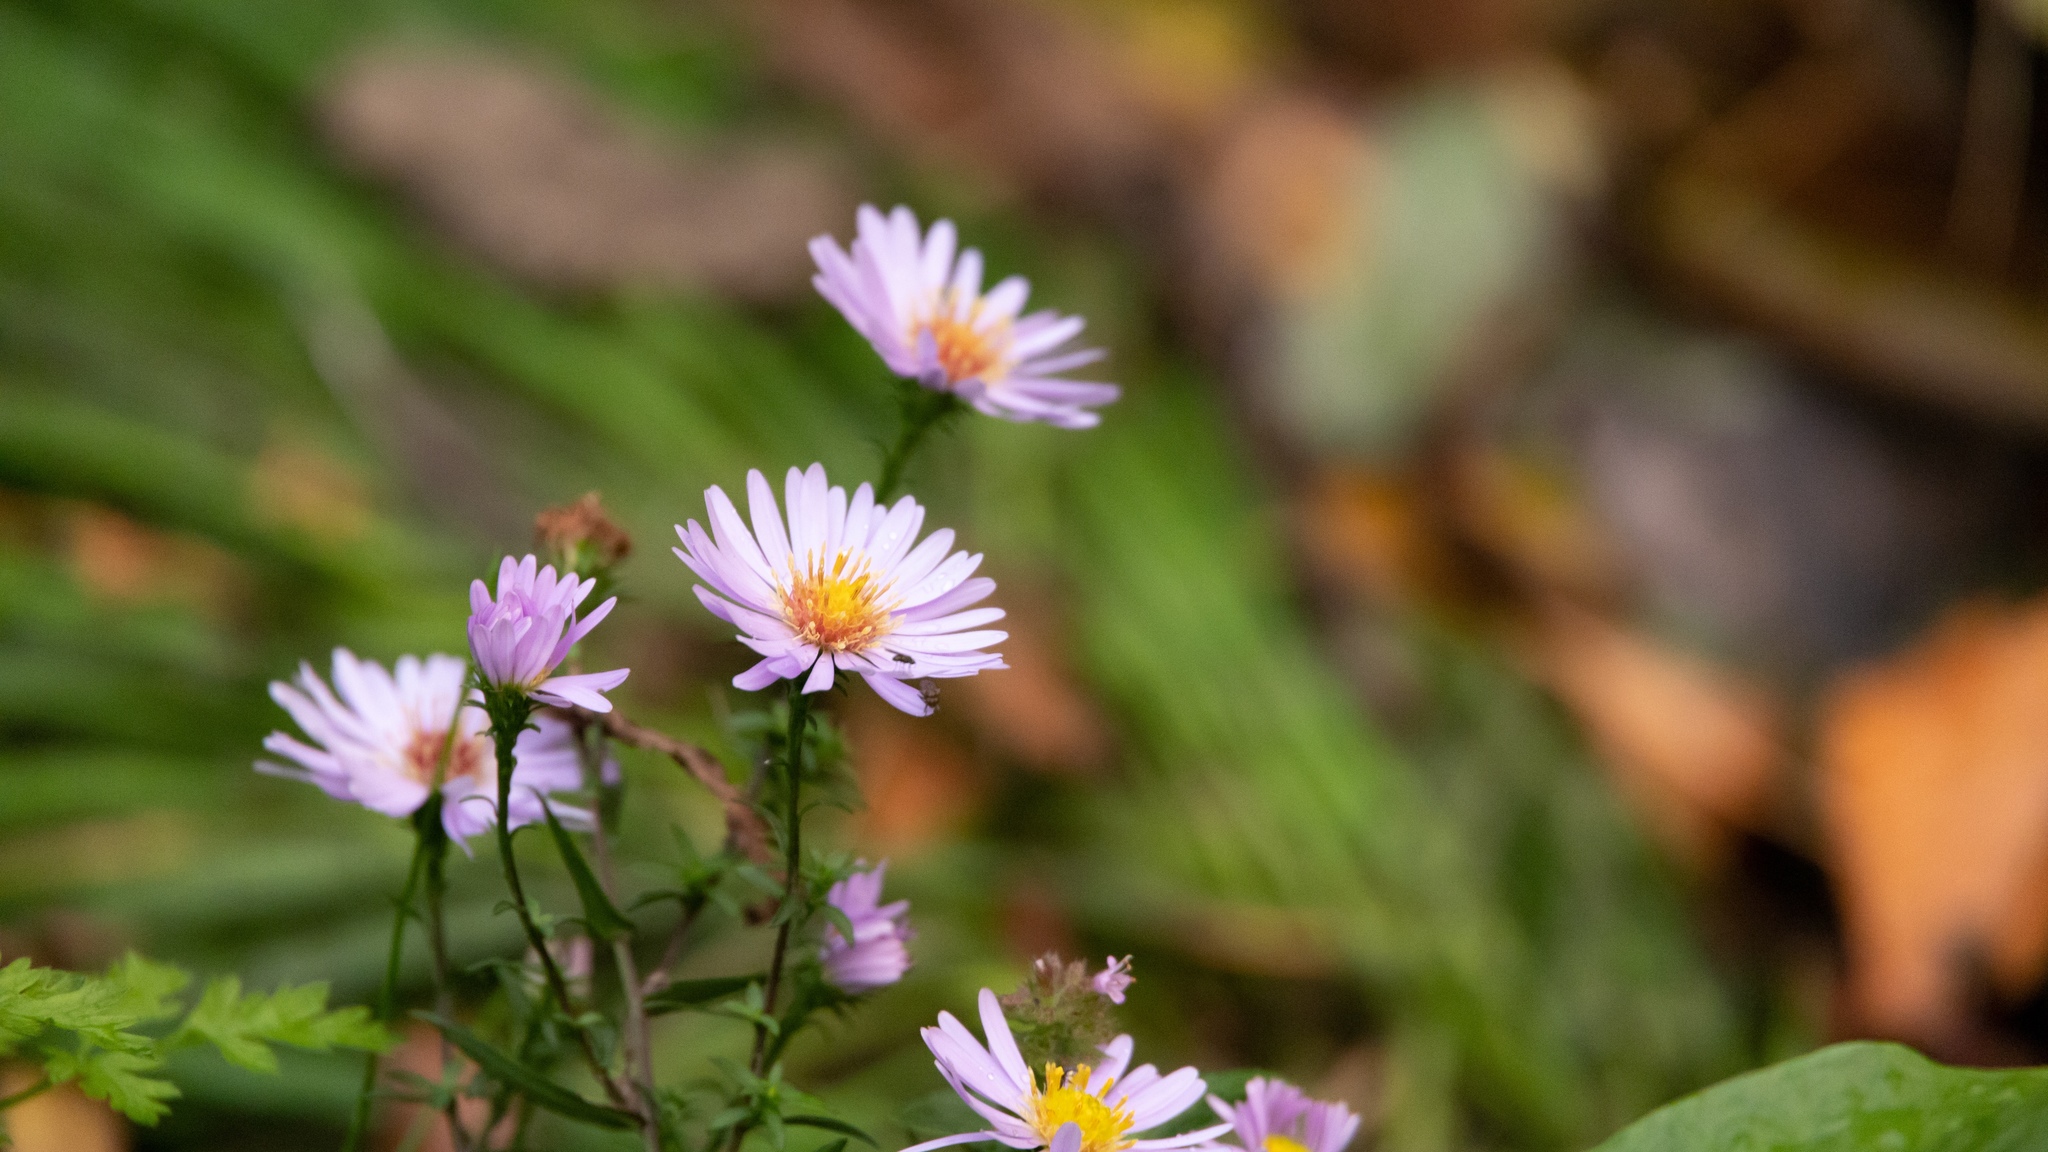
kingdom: Plantae
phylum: Tracheophyta
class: Magnoliopsida
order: Asterales
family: Asteraceae
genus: Symphyotrichum
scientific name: Symphyotrichum novi-belgii
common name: Michaelmas daisy
